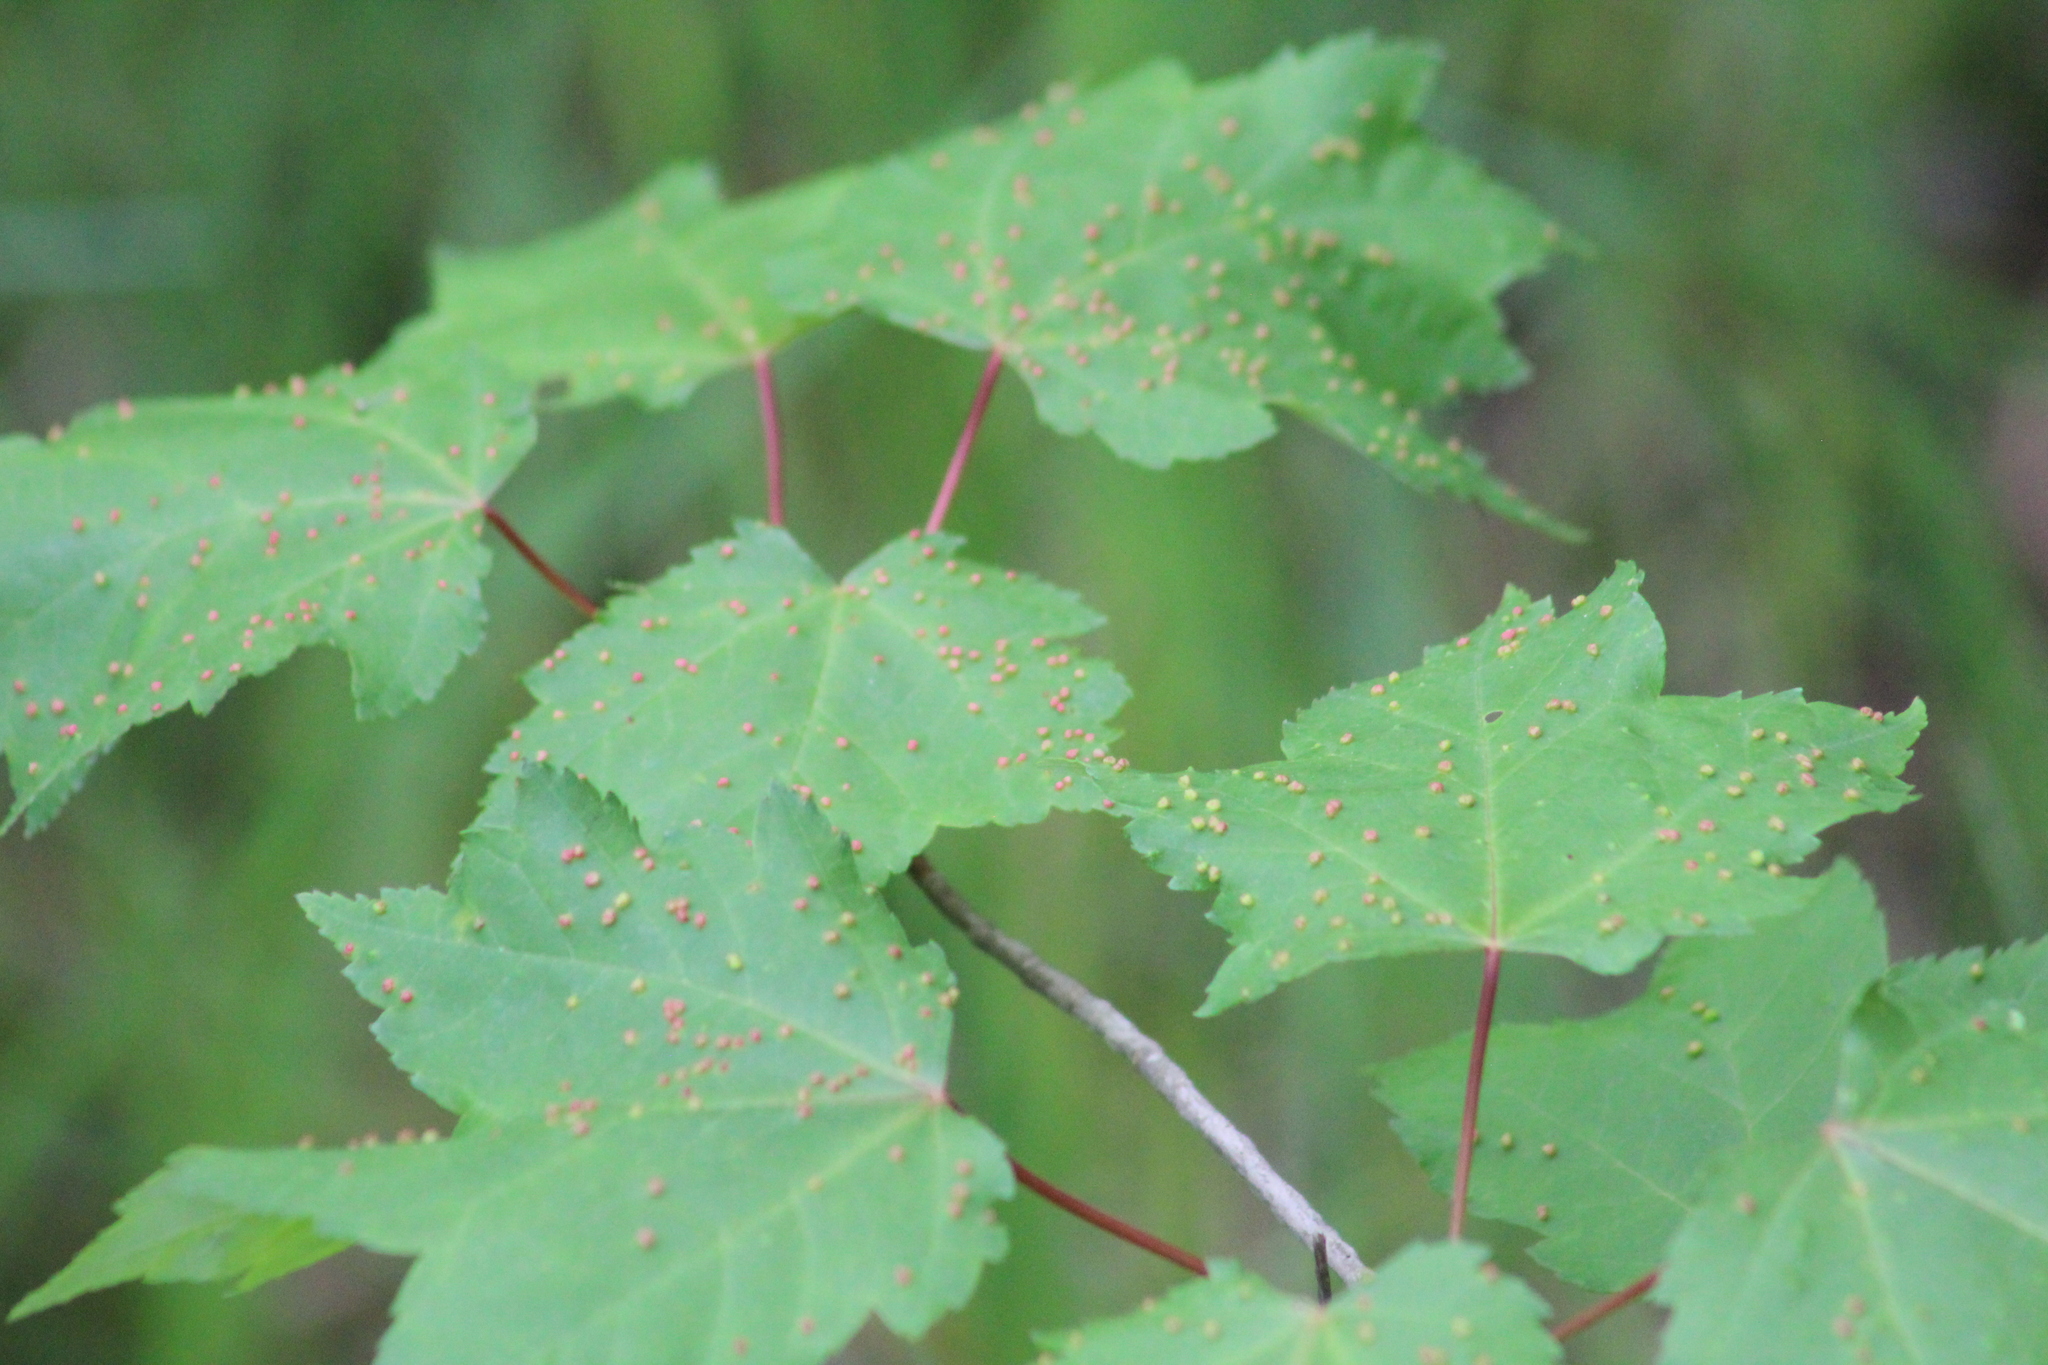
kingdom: Animalia
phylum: Arthropoda
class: Arachnida
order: Trombidiformes
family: Eriophyidae
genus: Vasates
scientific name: Vasates quadripedes
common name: Maple bladder gall mite
